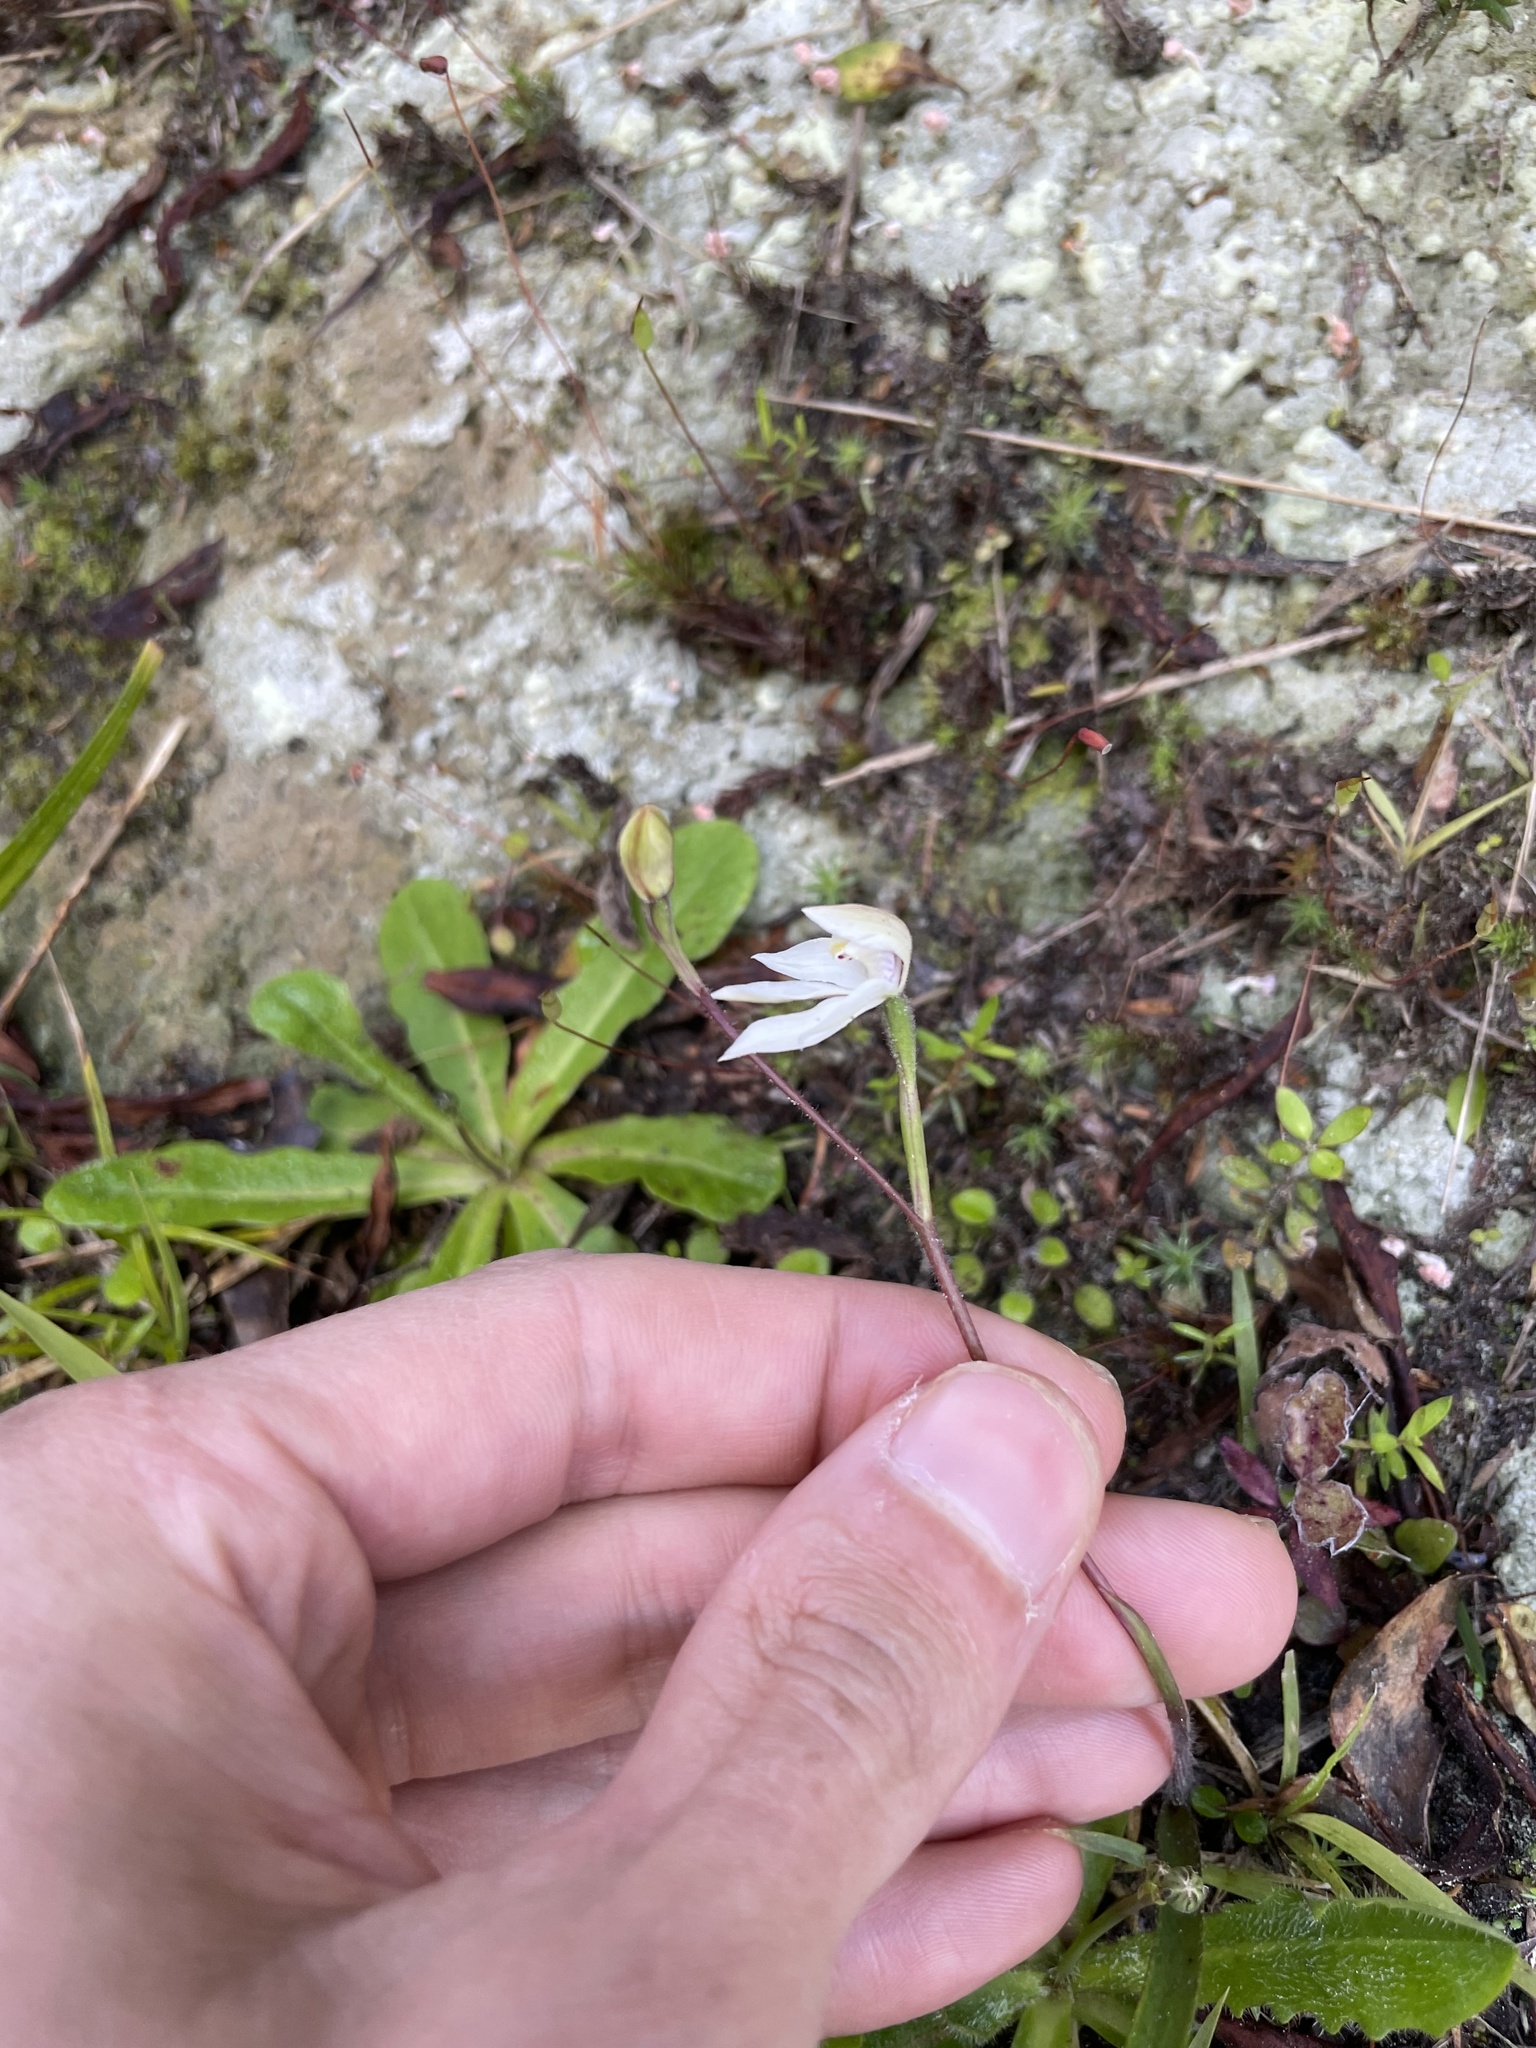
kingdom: Plantae
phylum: Tracheophyta
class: Liliopsida
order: Asparagales
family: Orchidaceae
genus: Caladenia
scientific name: Caladenia lyallii
